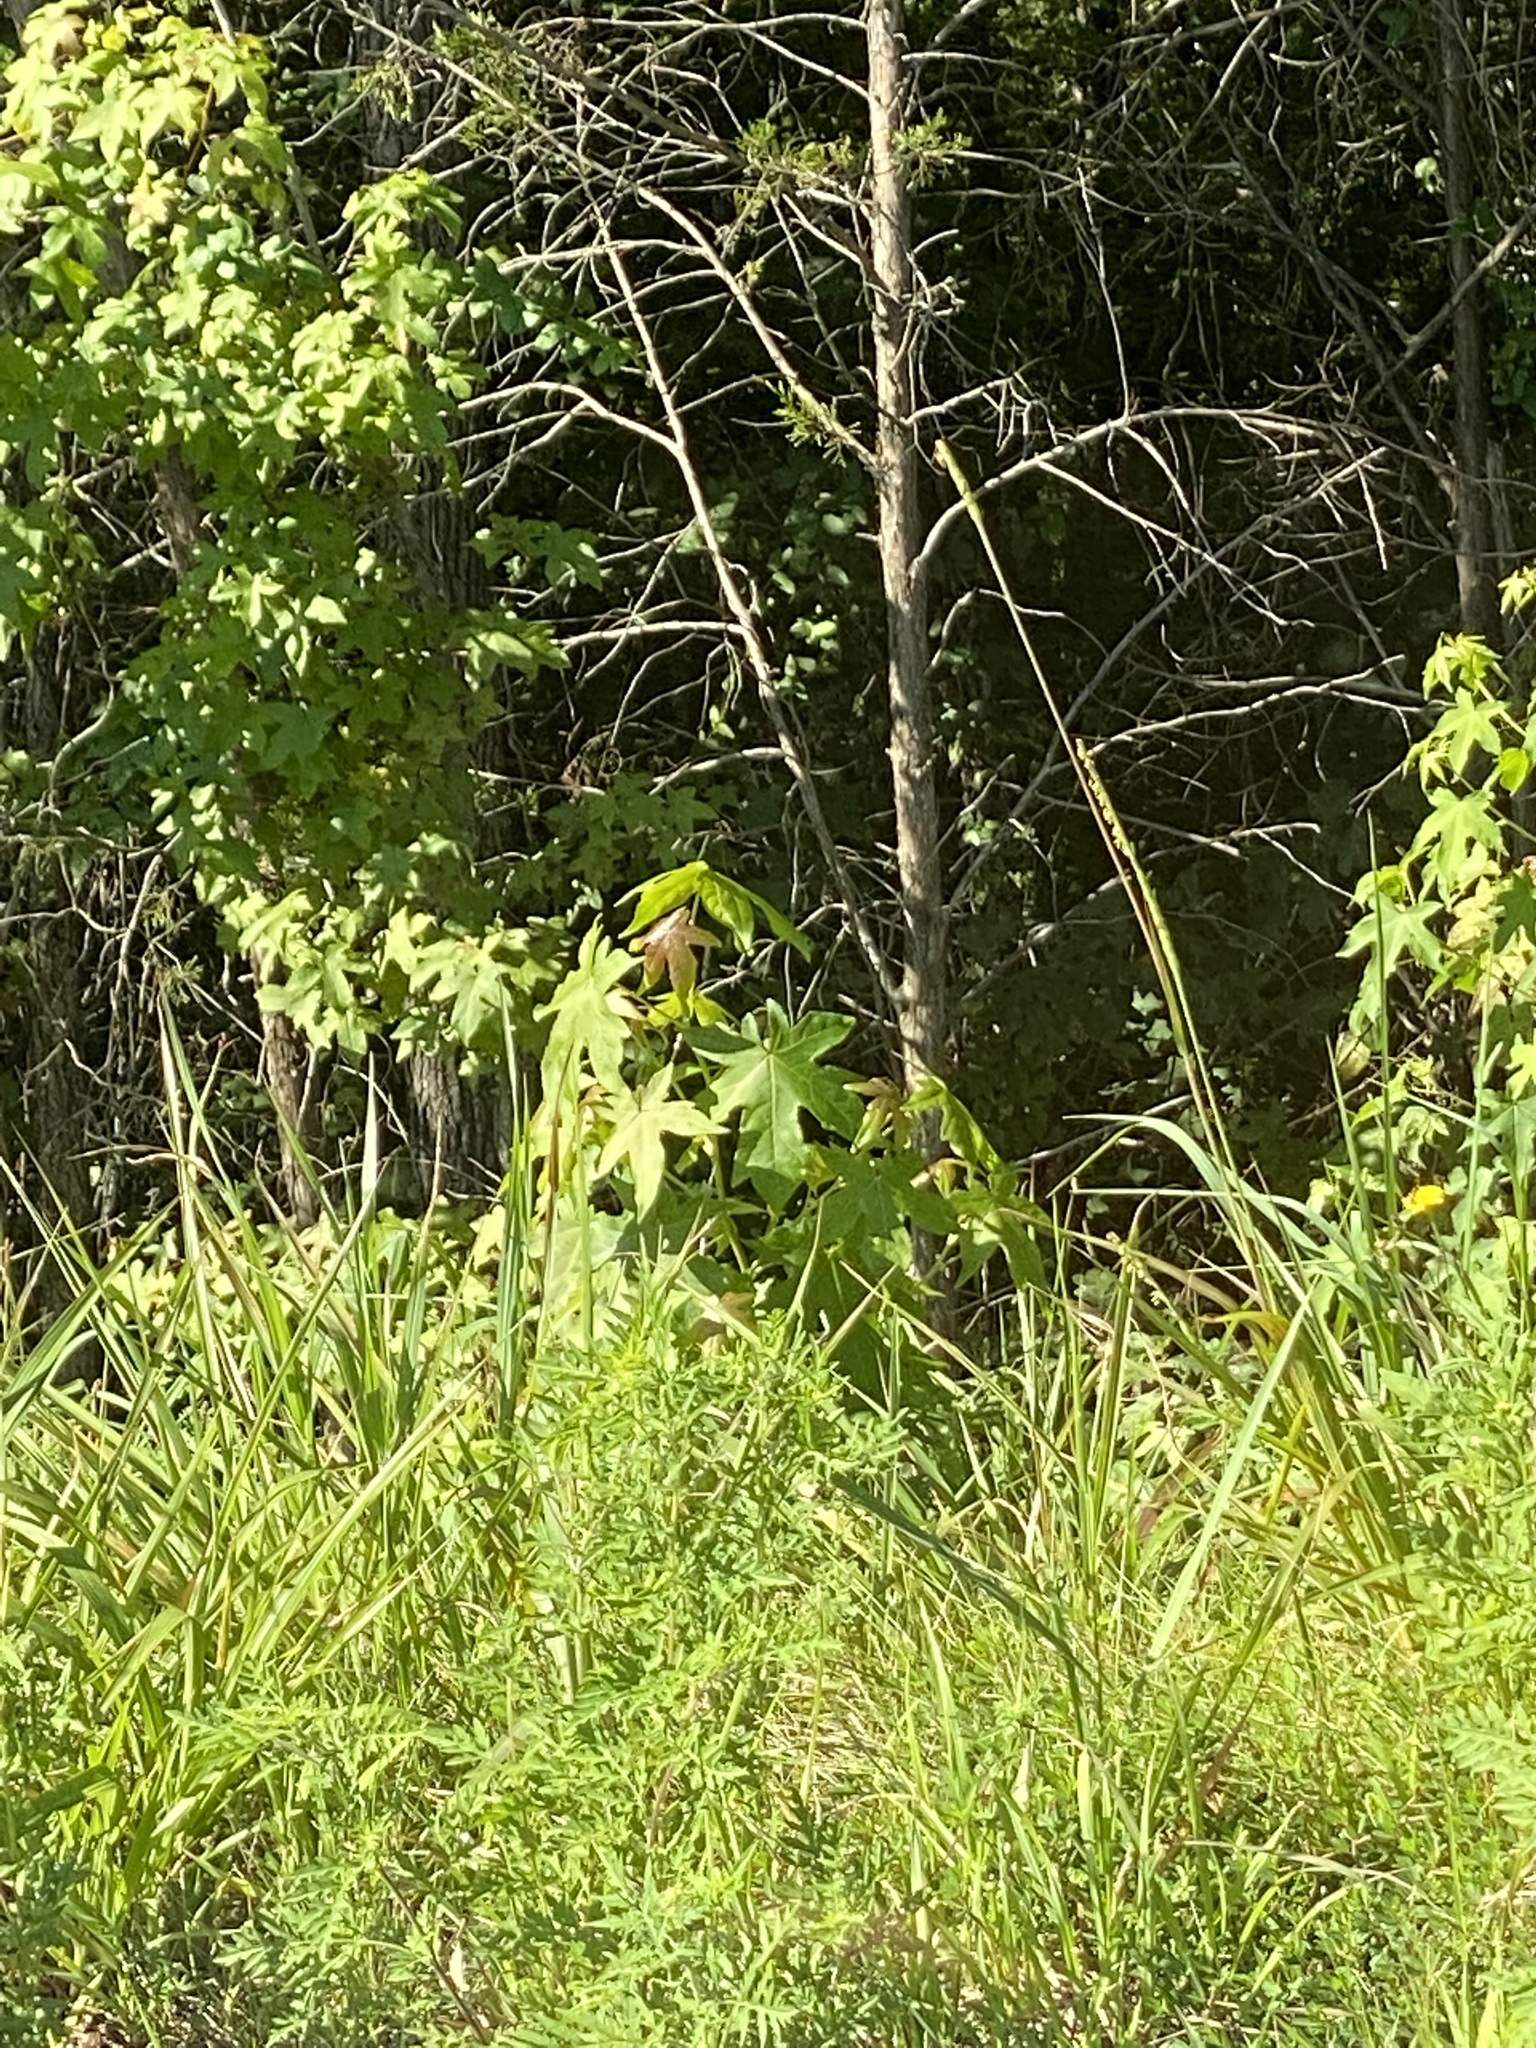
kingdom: Plantae
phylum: Tracheophyta
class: Magnoliopsida
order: Saxifragales
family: Altingiaceae
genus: Liquidambar
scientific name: Liquidambar styraciflua
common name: Sweet gum
